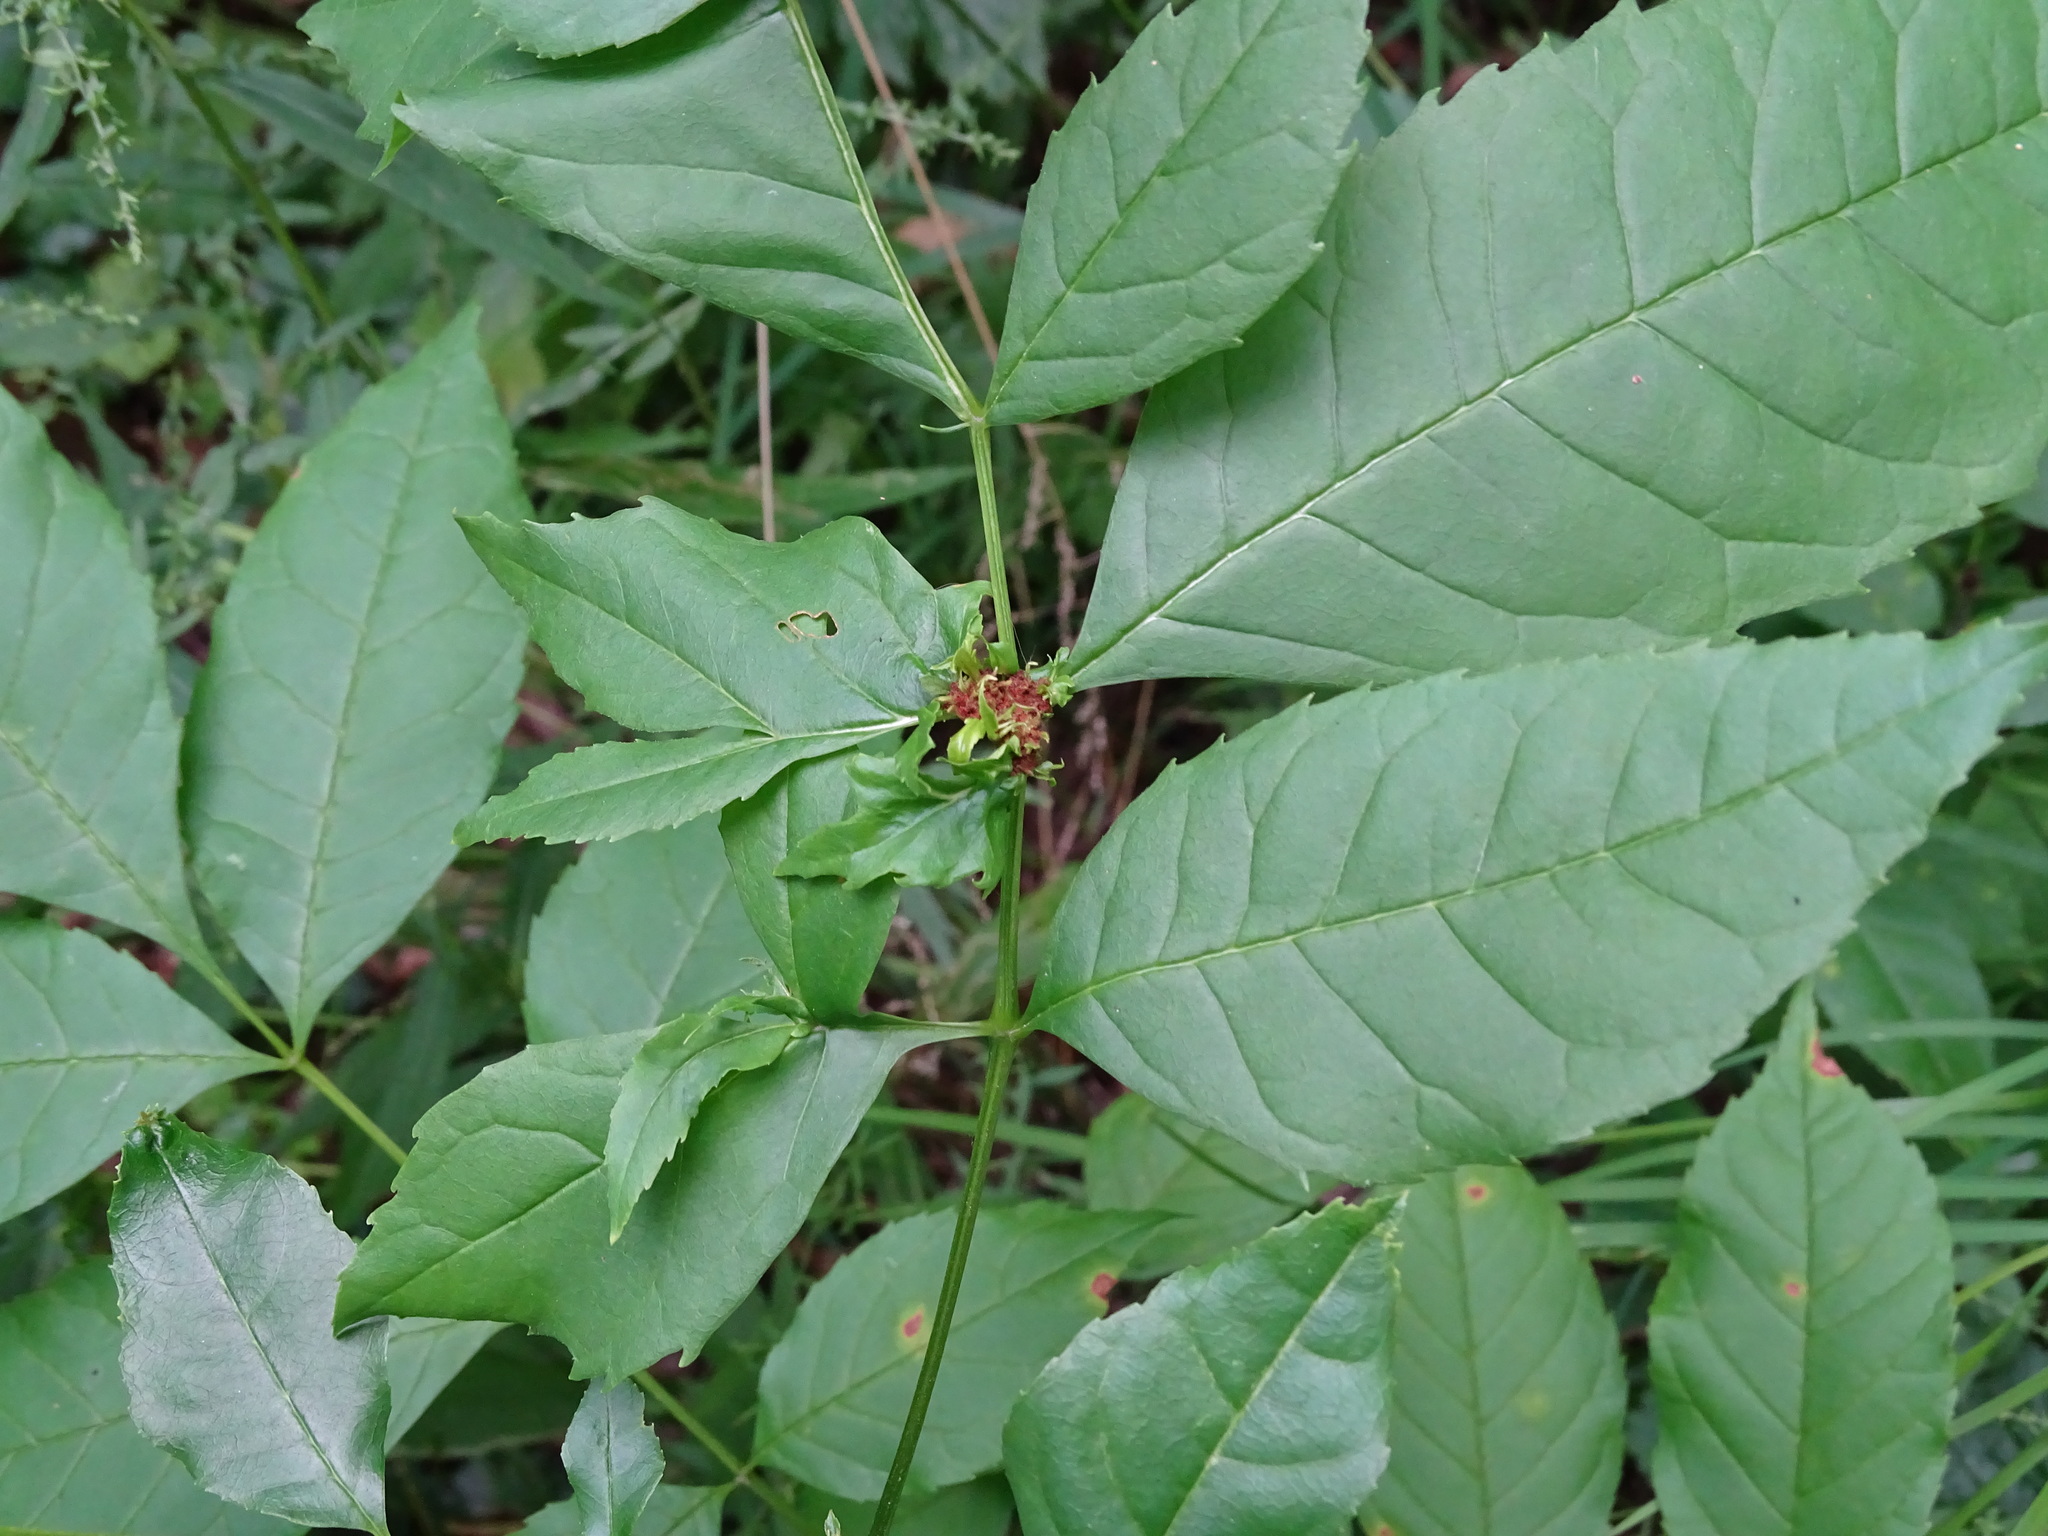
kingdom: Bacteria
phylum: Firmicutes
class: Bacilli
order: Acholeplasmatales
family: Acholeplasmataceae
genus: Phytoplasma
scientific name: Phytoplasma
